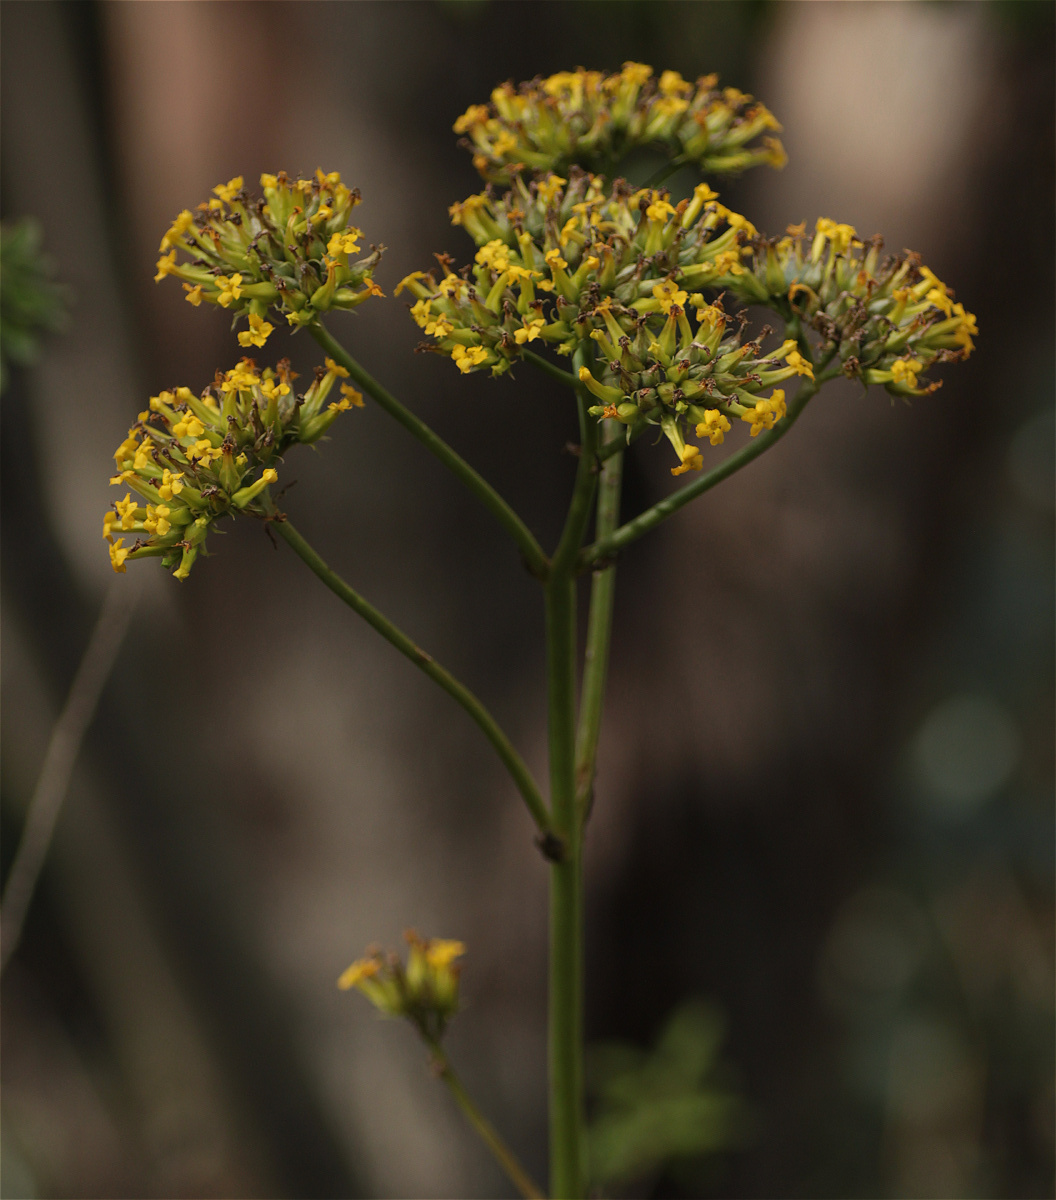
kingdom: Plantae
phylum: Tracheophyta
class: Magnoliopsida
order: Saxifragales
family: Crassulaceae
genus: Kalanchoe
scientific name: Kalanchoe densiflora
